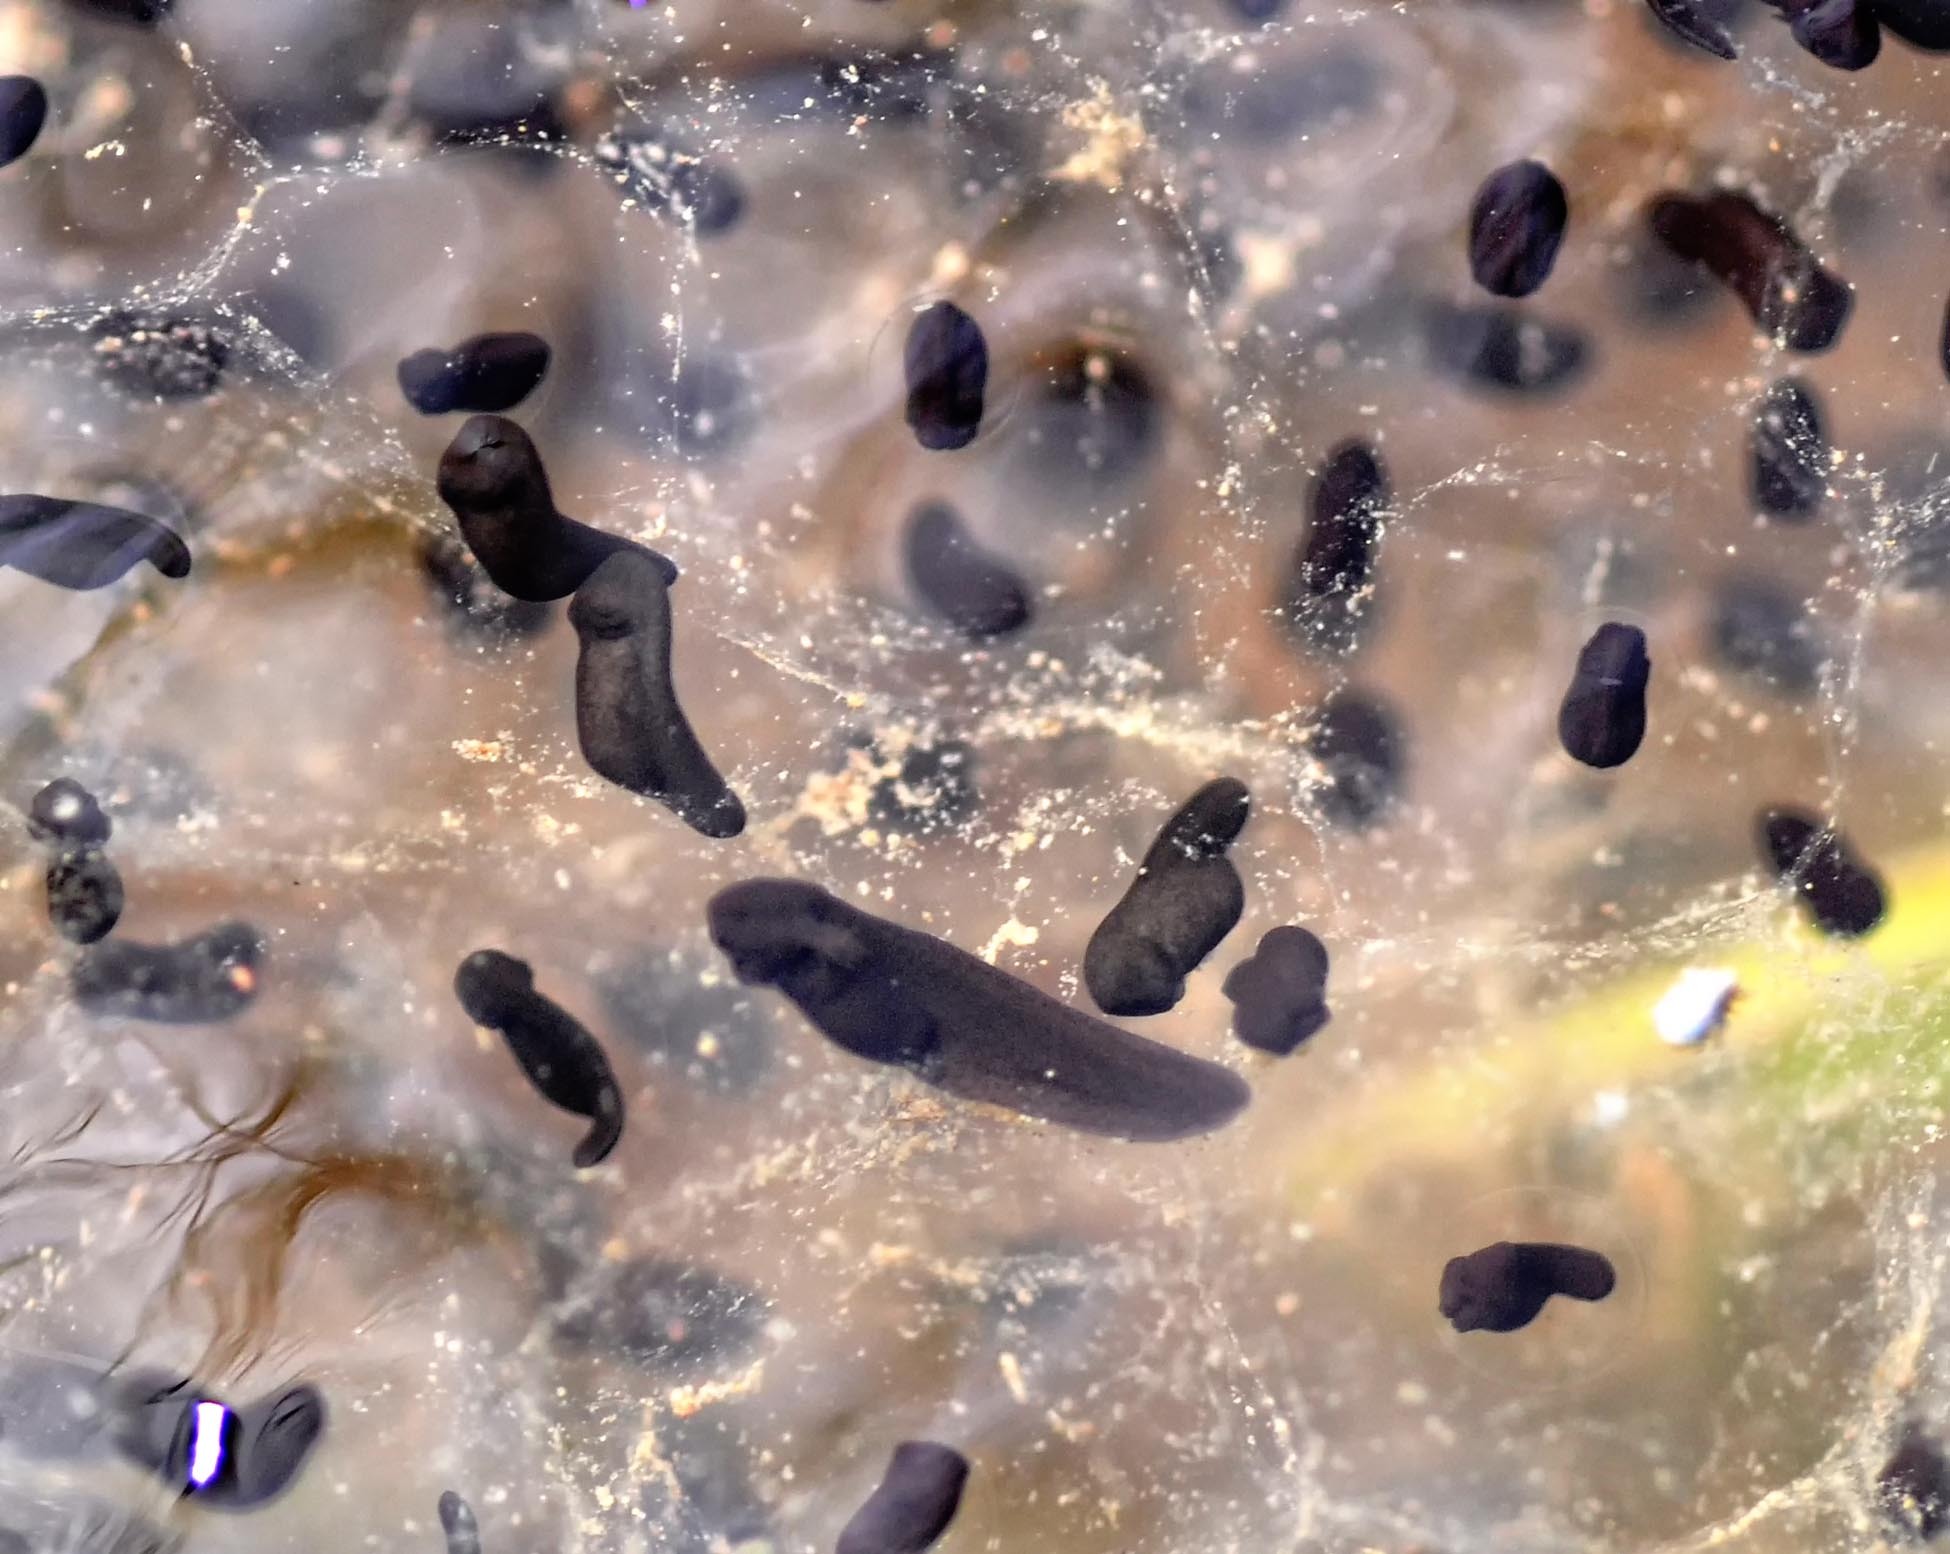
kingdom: Animalia
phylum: Chordata
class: Amphibia
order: Anura
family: Ranidae
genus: Rana
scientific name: Rana temporaria
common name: Common frog
